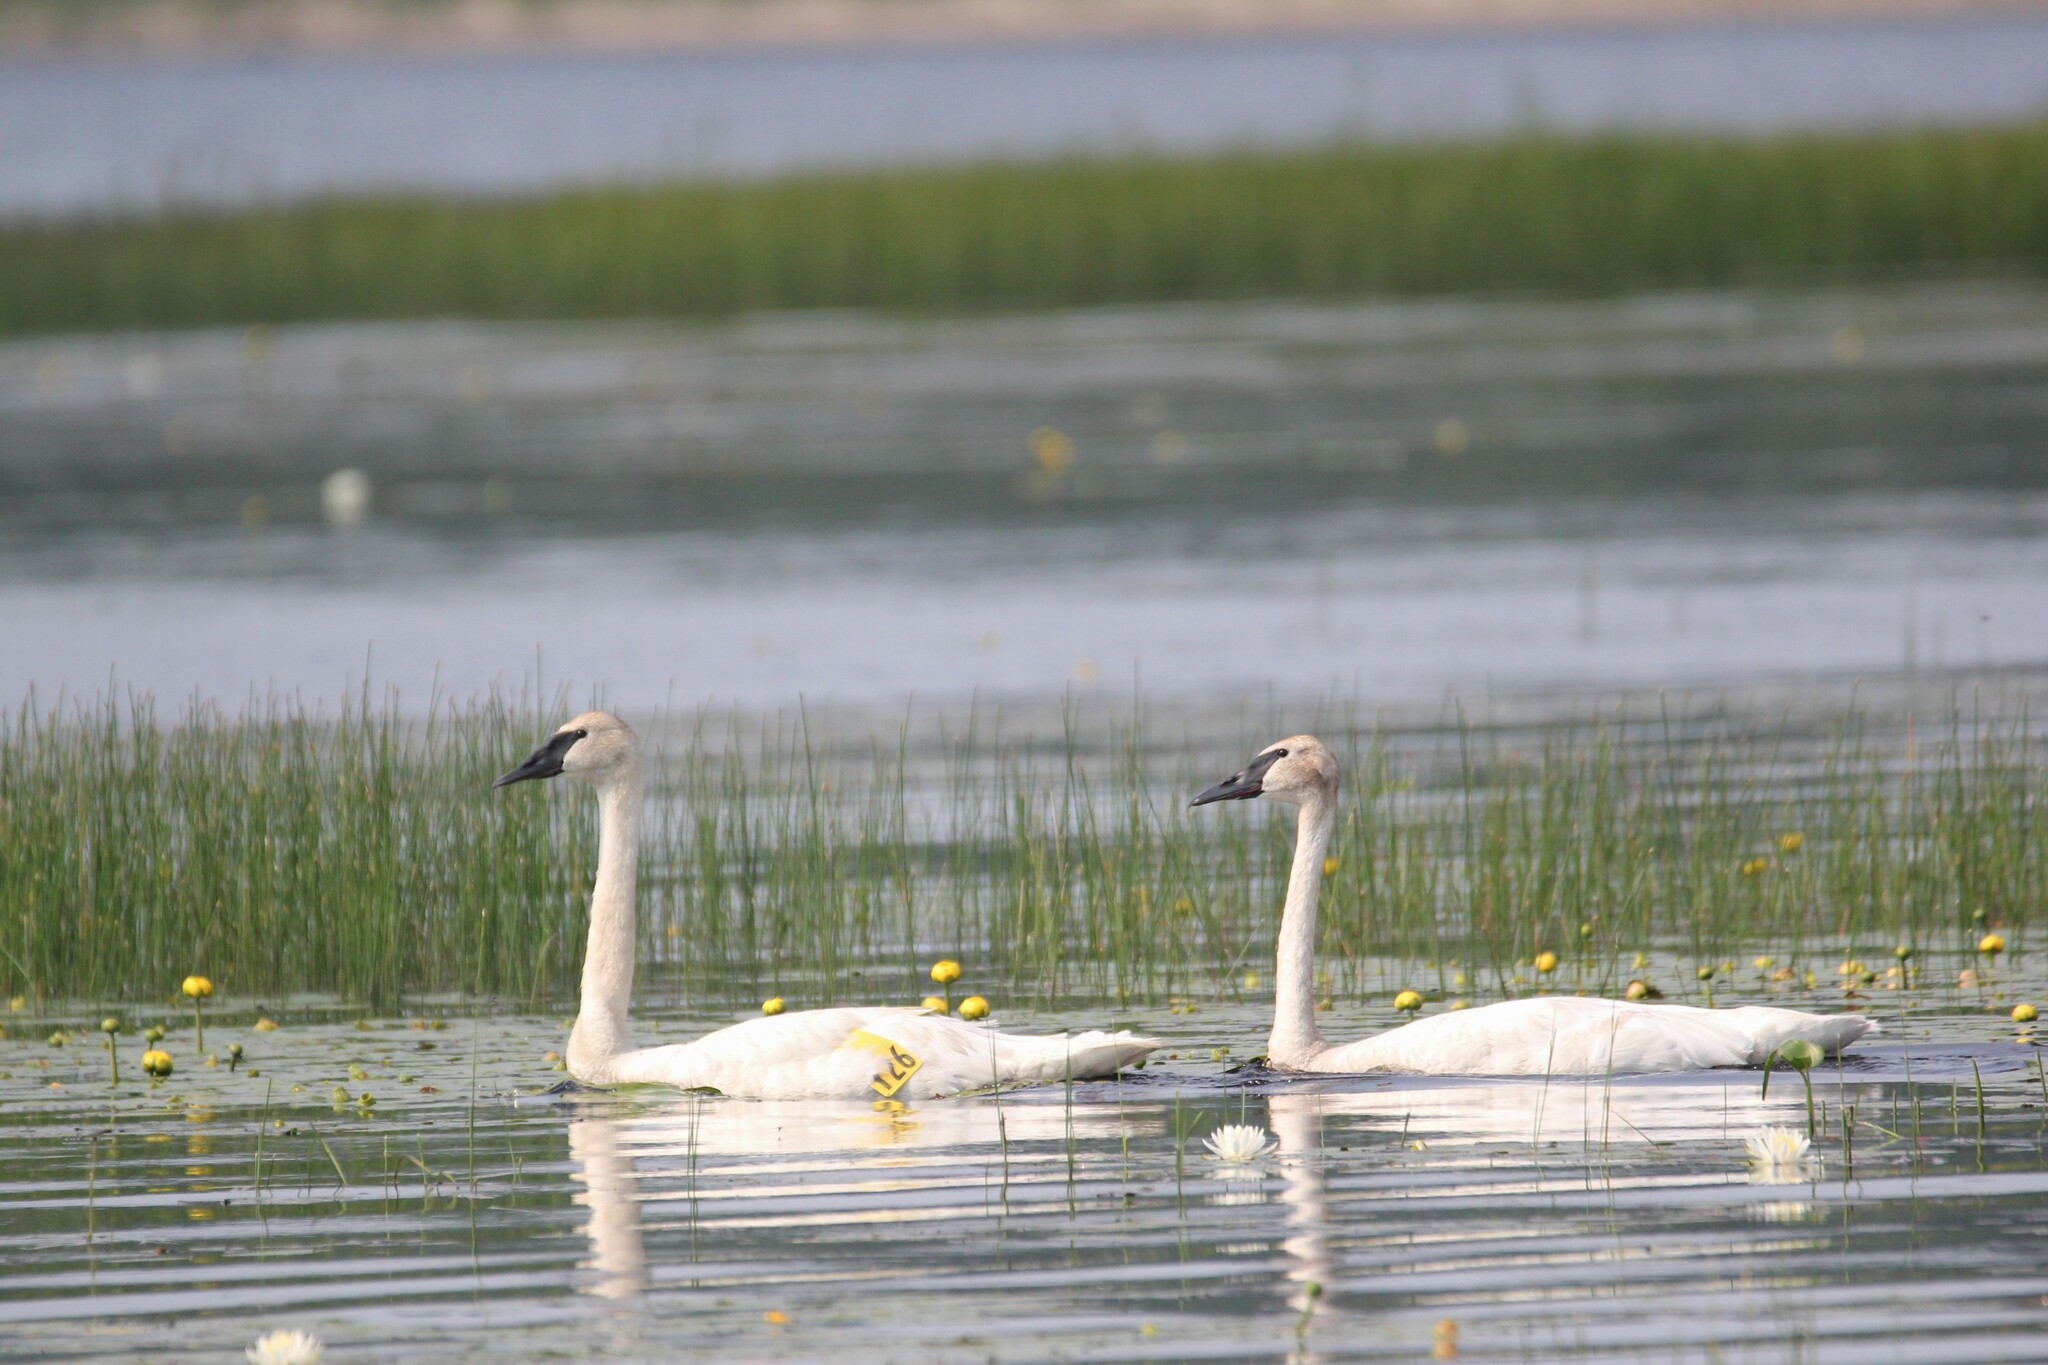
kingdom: Animalia
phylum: Chordata
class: Aves
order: Anseriformes
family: Anatidae
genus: Cygnus
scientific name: Cygnus buccinator
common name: Trumpeter swan
